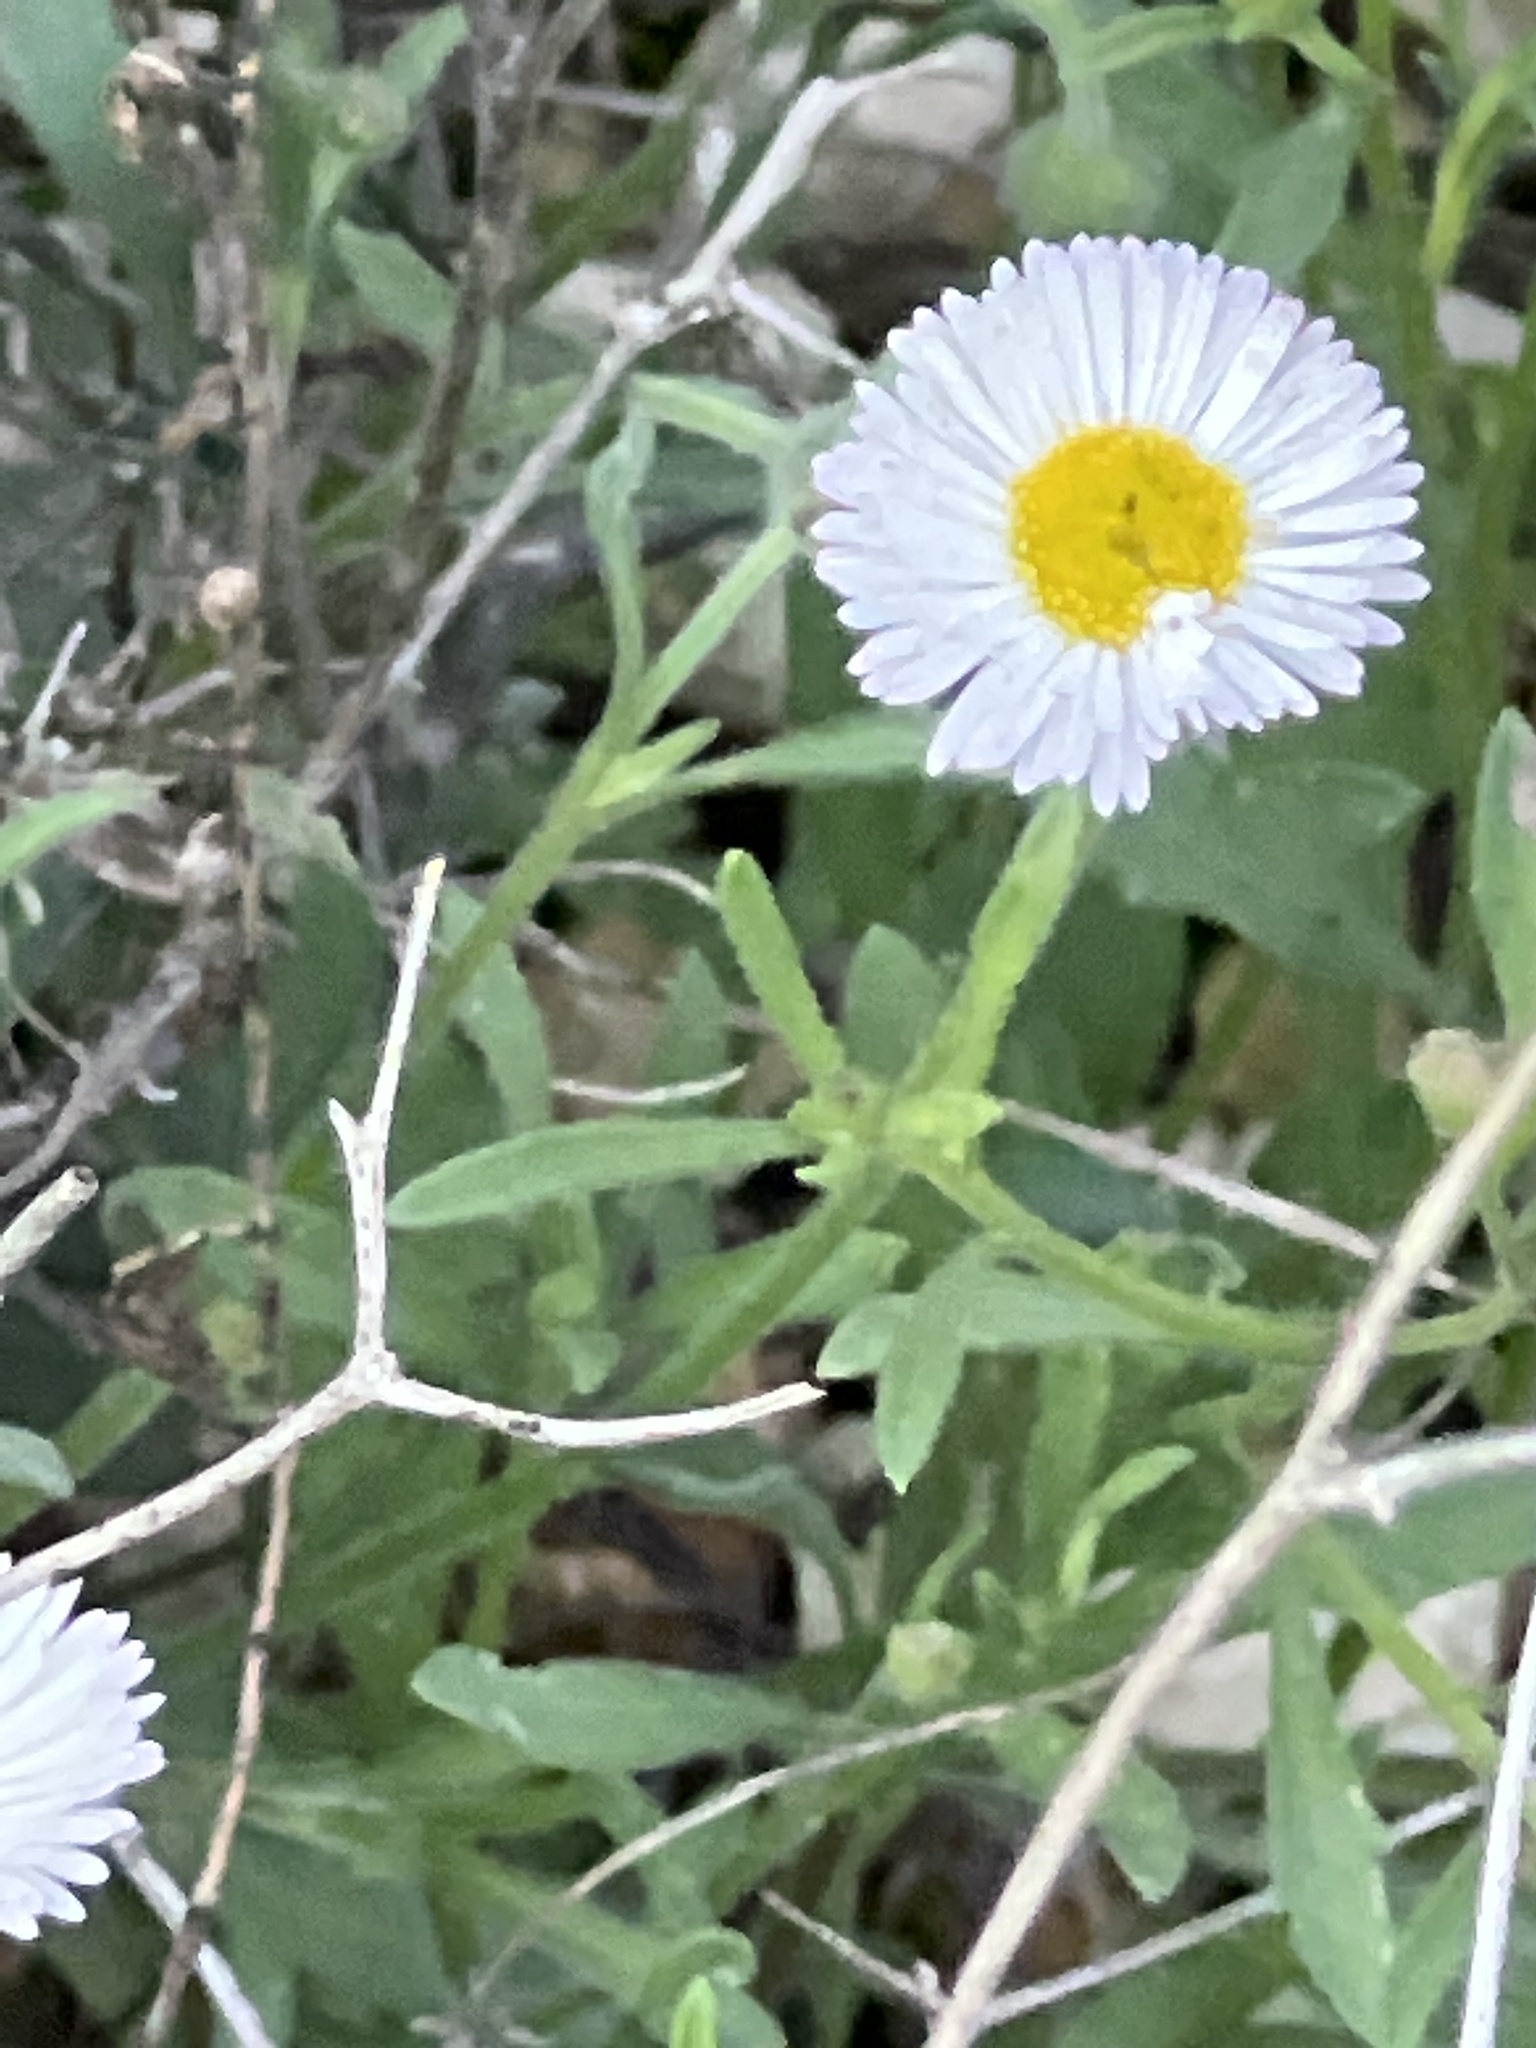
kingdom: Plantae
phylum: Tracheophyta
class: Magnoliopsida
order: Asterales
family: Asteraceae
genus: Erigeron
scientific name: Erigeron modestus
